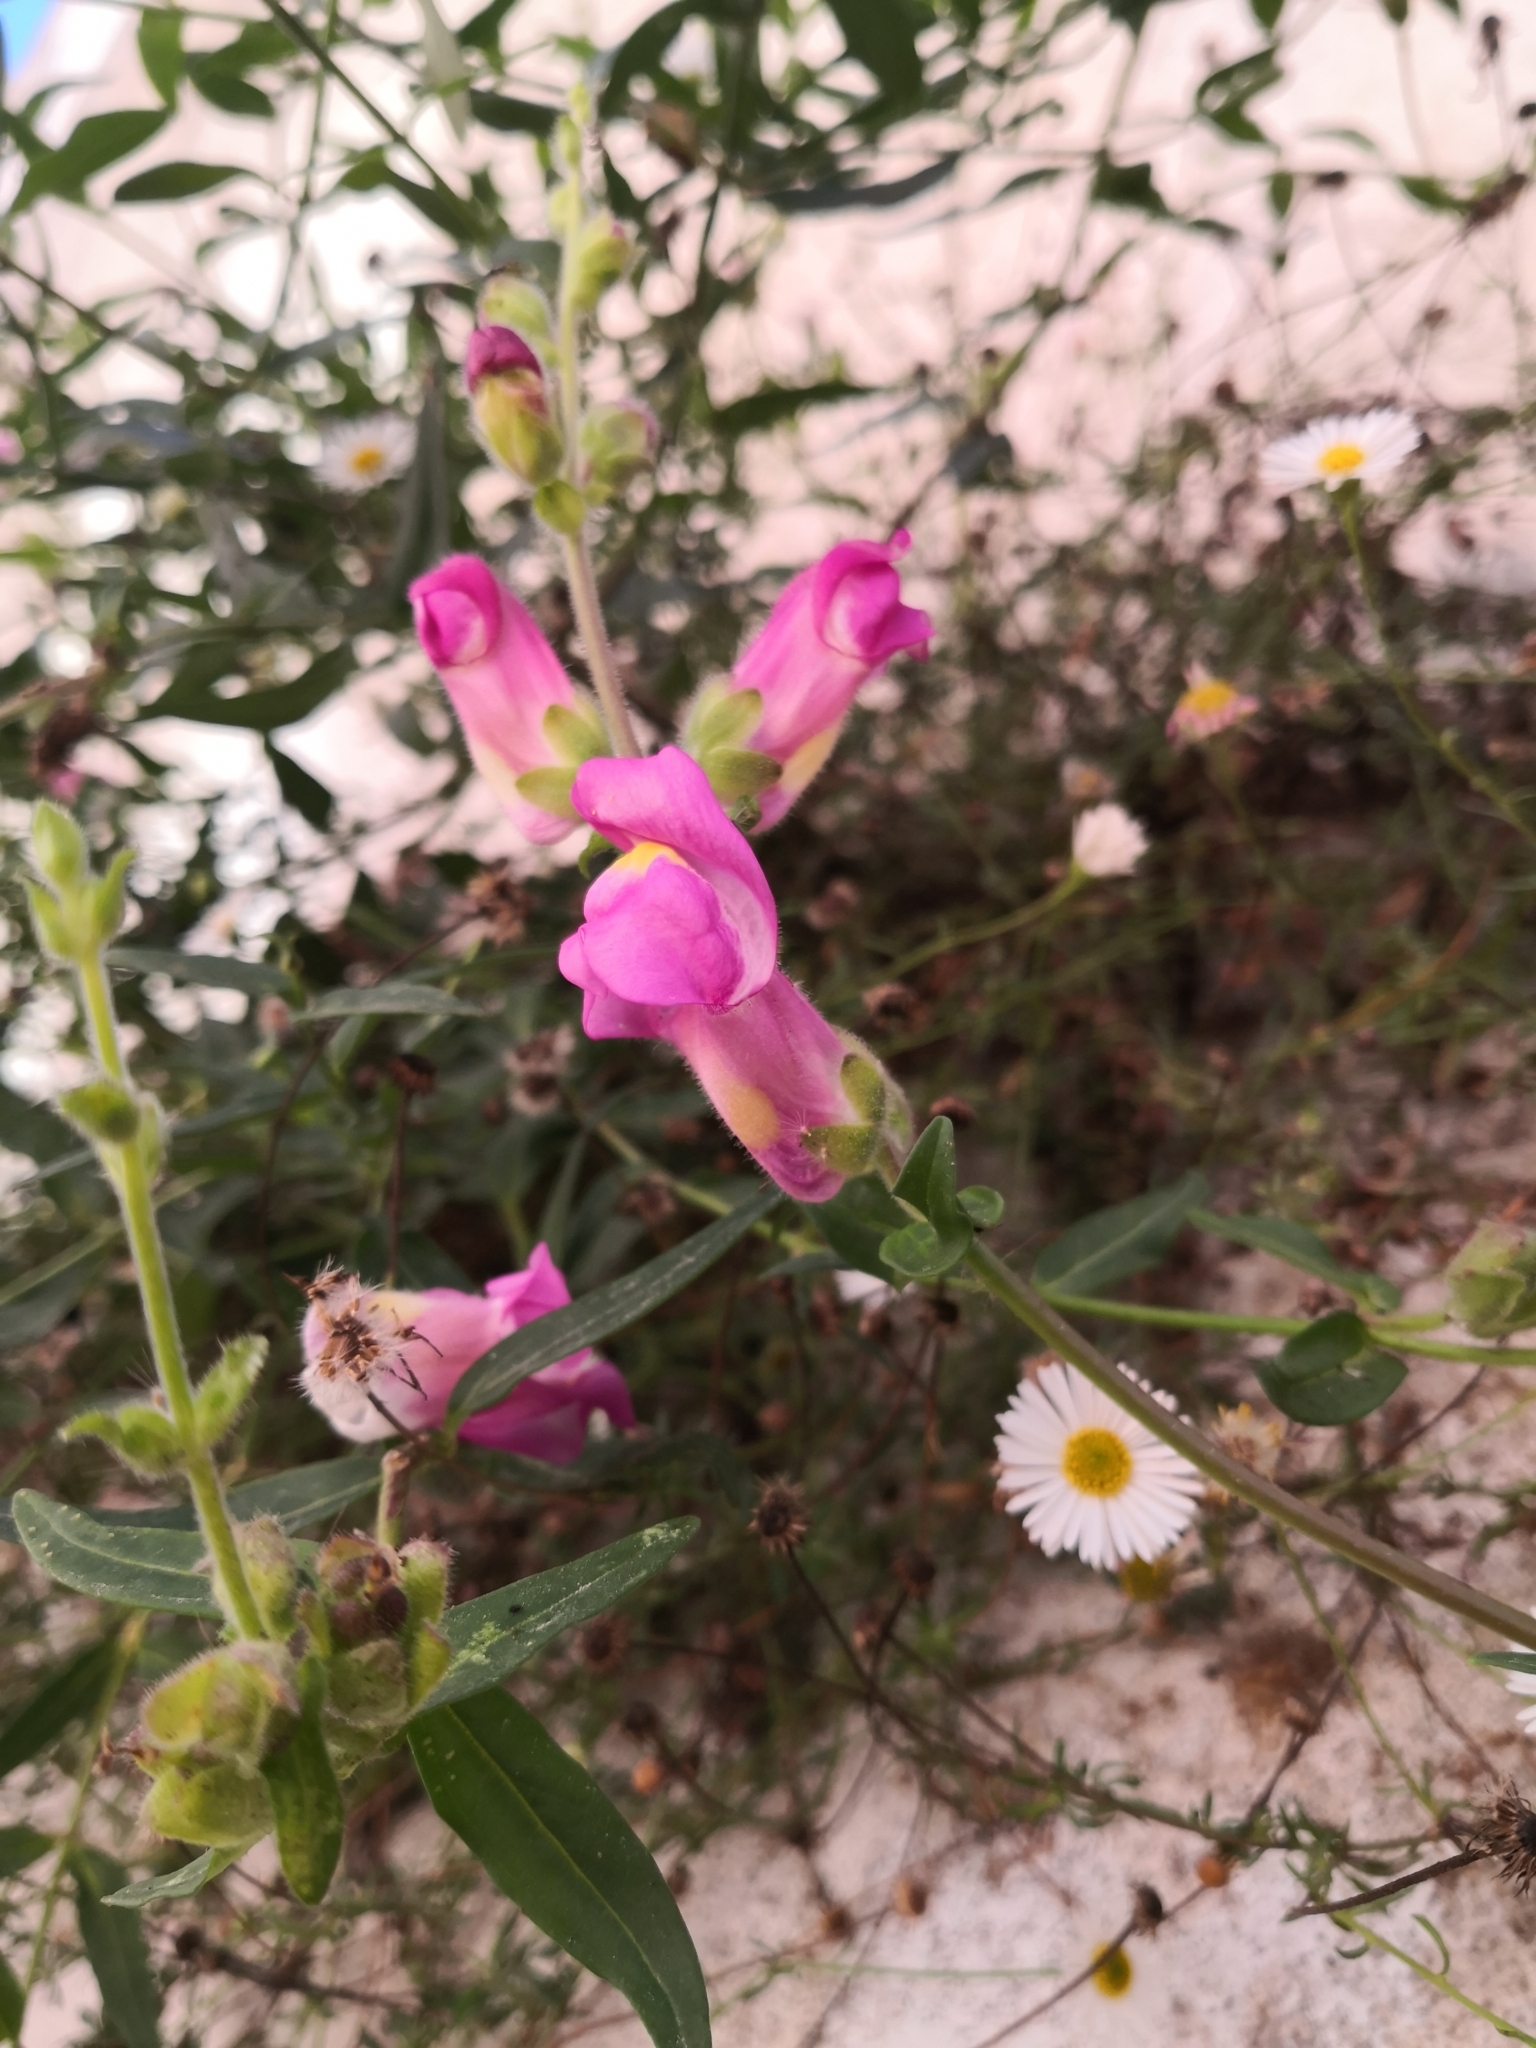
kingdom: Plantae
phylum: Tracheophyta
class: Magnoliopsida
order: Lamiales
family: Plantaginaceae
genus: Antirrhinum
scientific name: Antirrhinum linkianum
